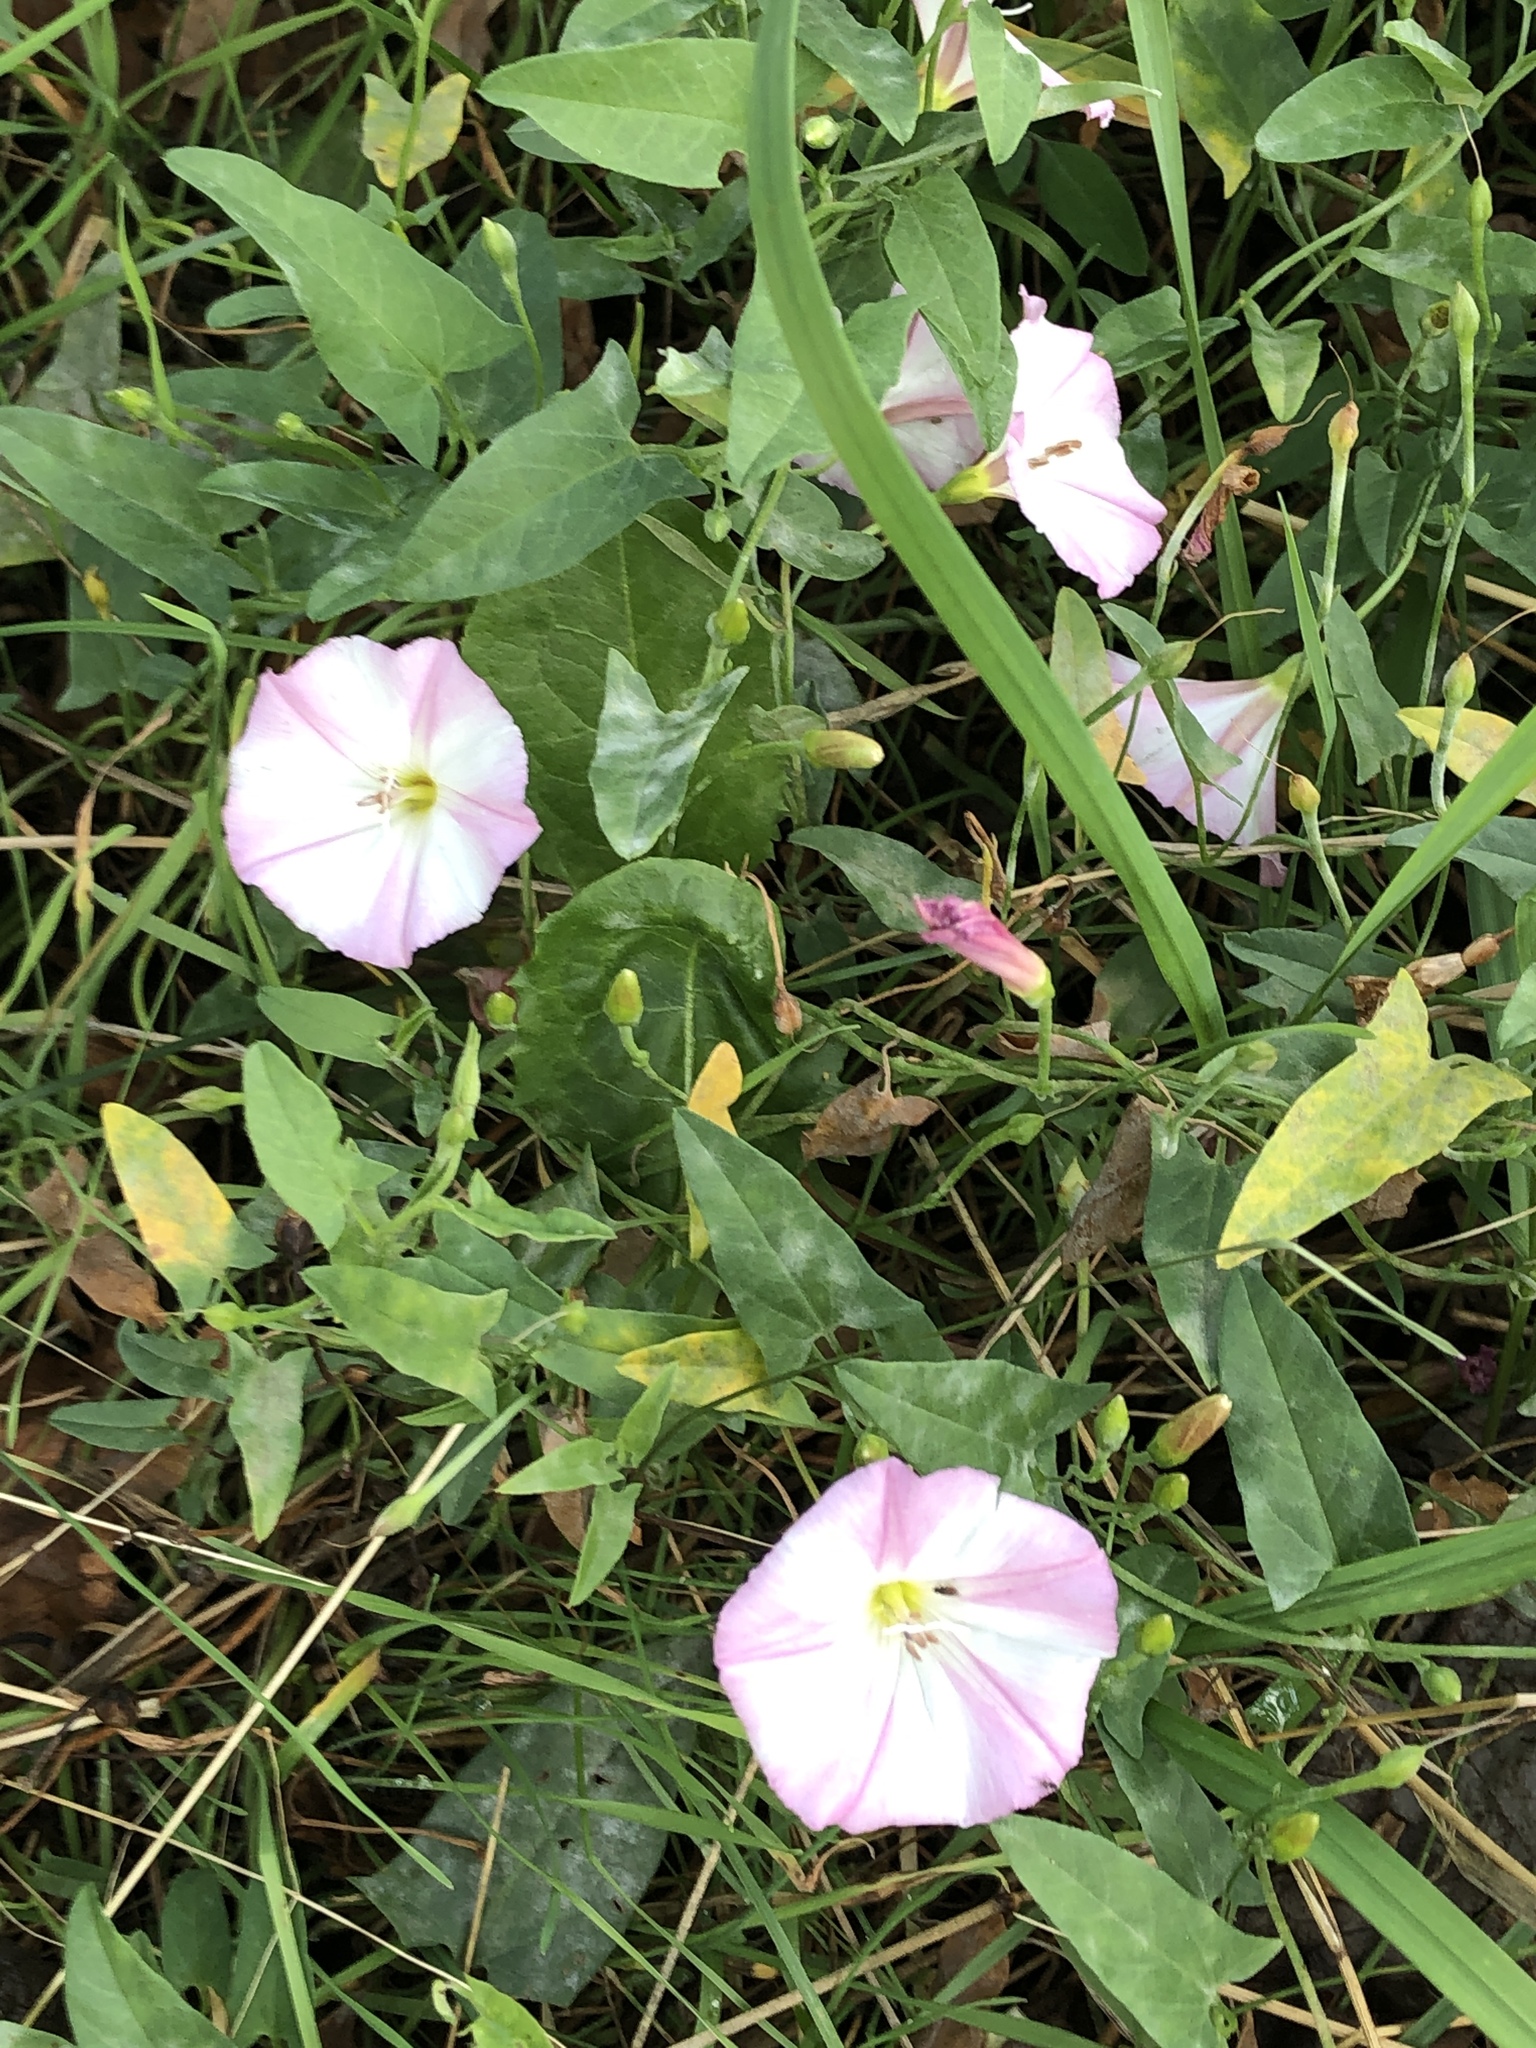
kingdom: Plantae
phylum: Tracheophyta
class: Magnoliopsida
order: Solanales
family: Convolvulaceae
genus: Convolvulus
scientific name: Convolvulus arvensis
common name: Field bindweed
